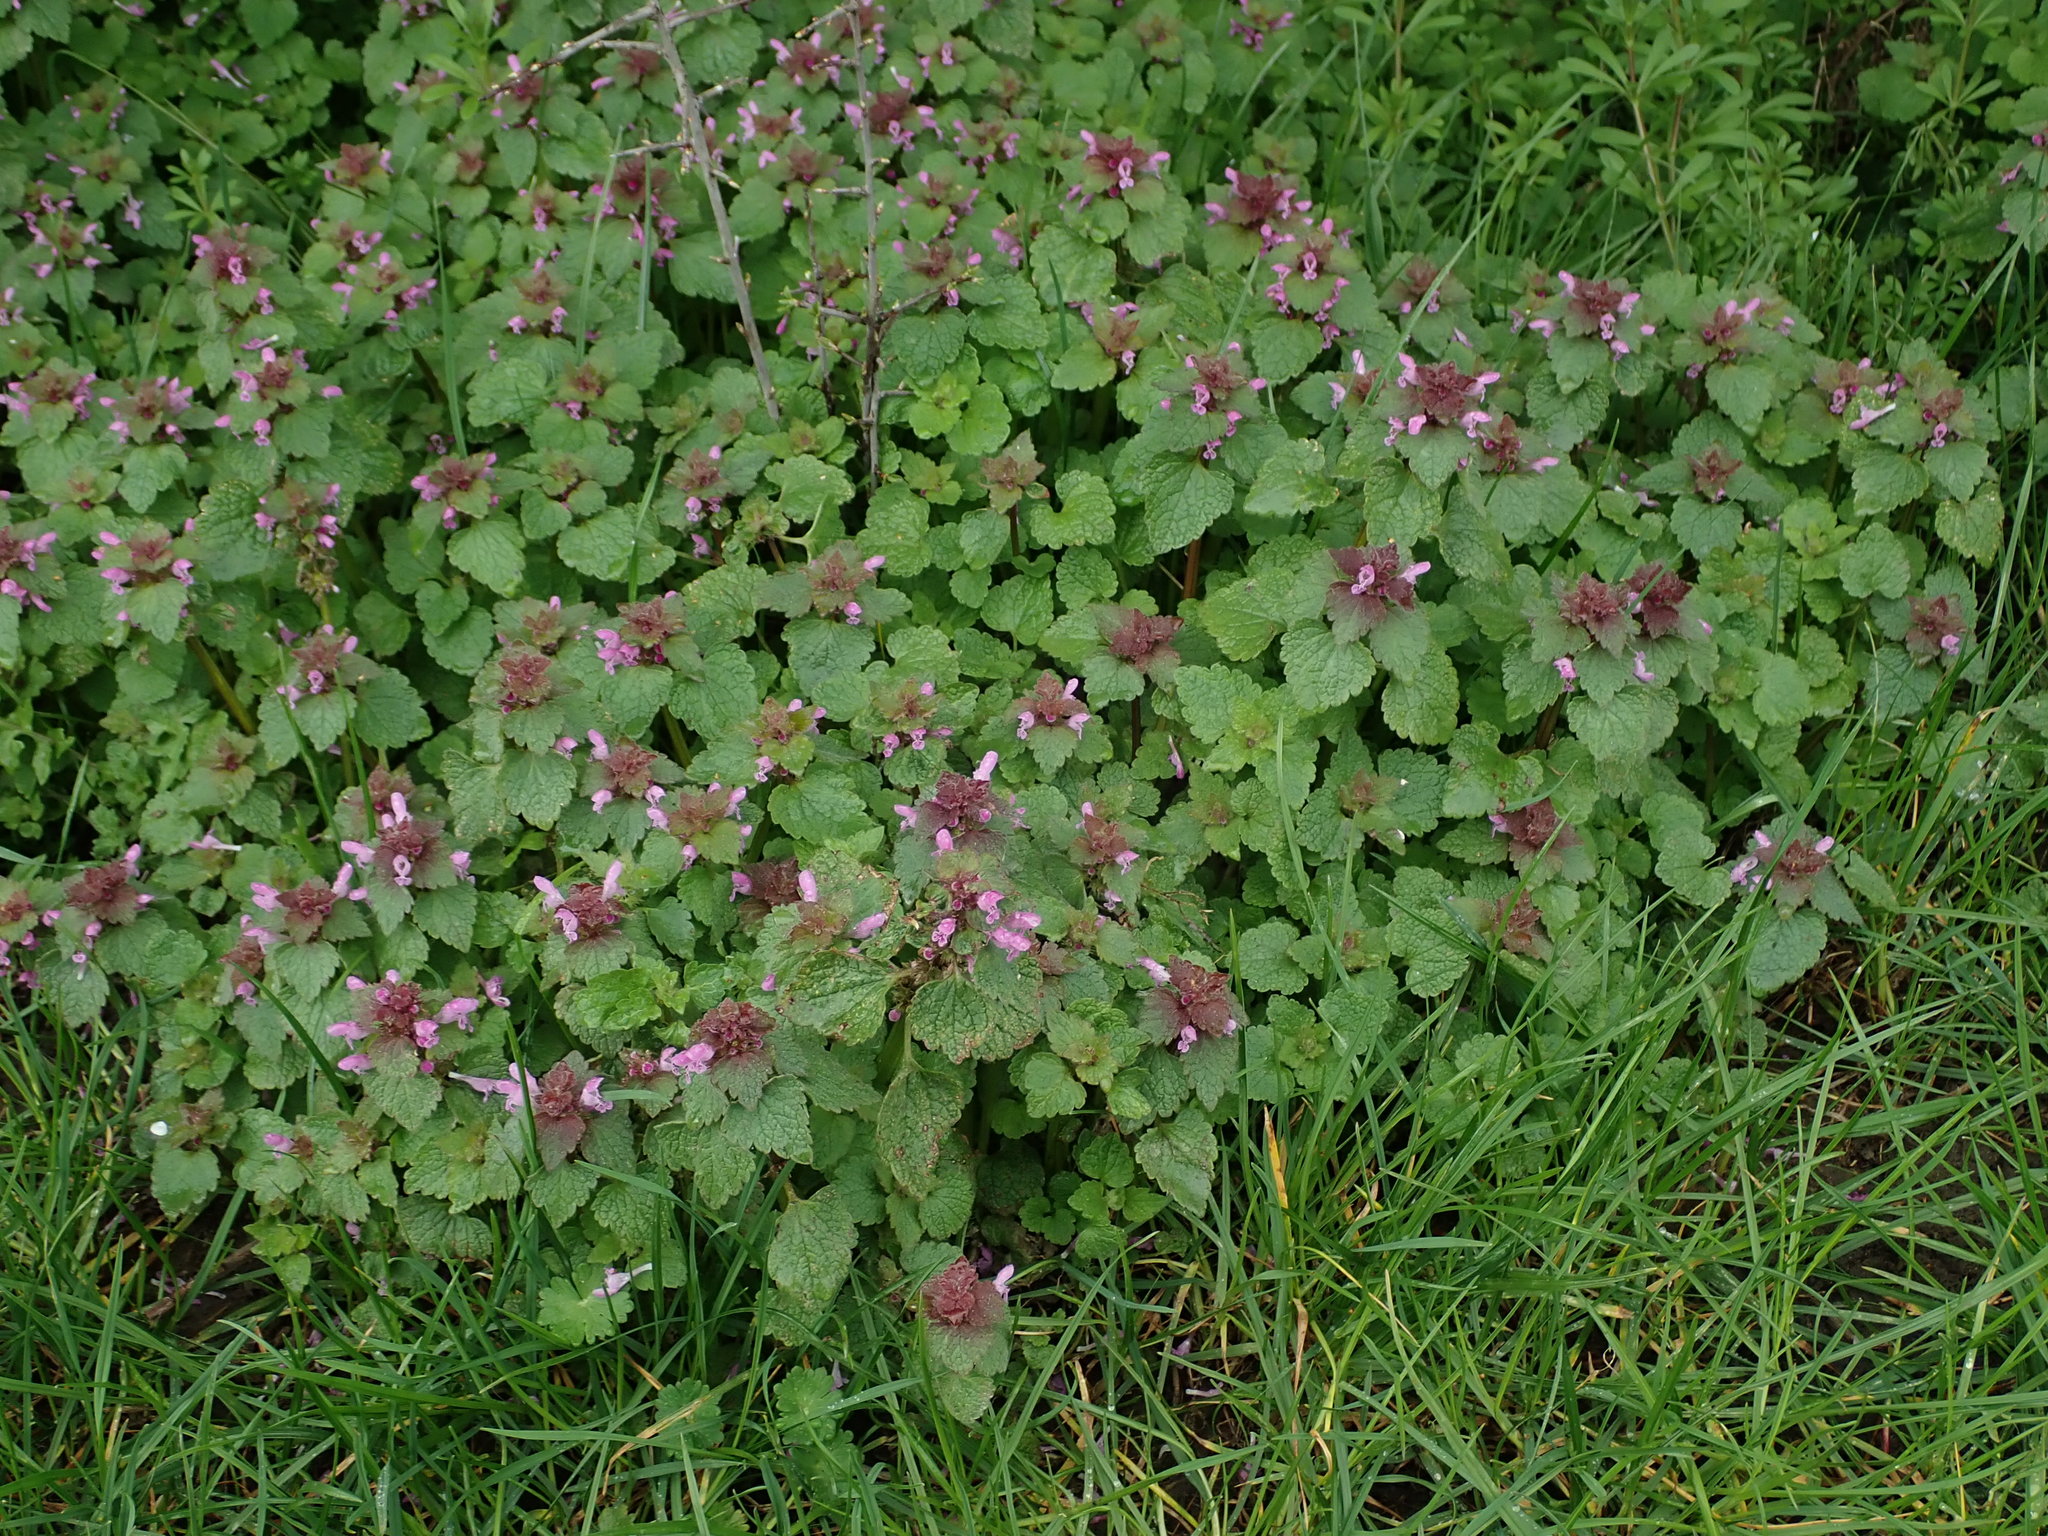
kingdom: Plantae
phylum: Tracheophyta
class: Magnoliopsida
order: Lamiales
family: Lamiaceae
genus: Lamium
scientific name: Lamium purpureum
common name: Red dead-nettle
